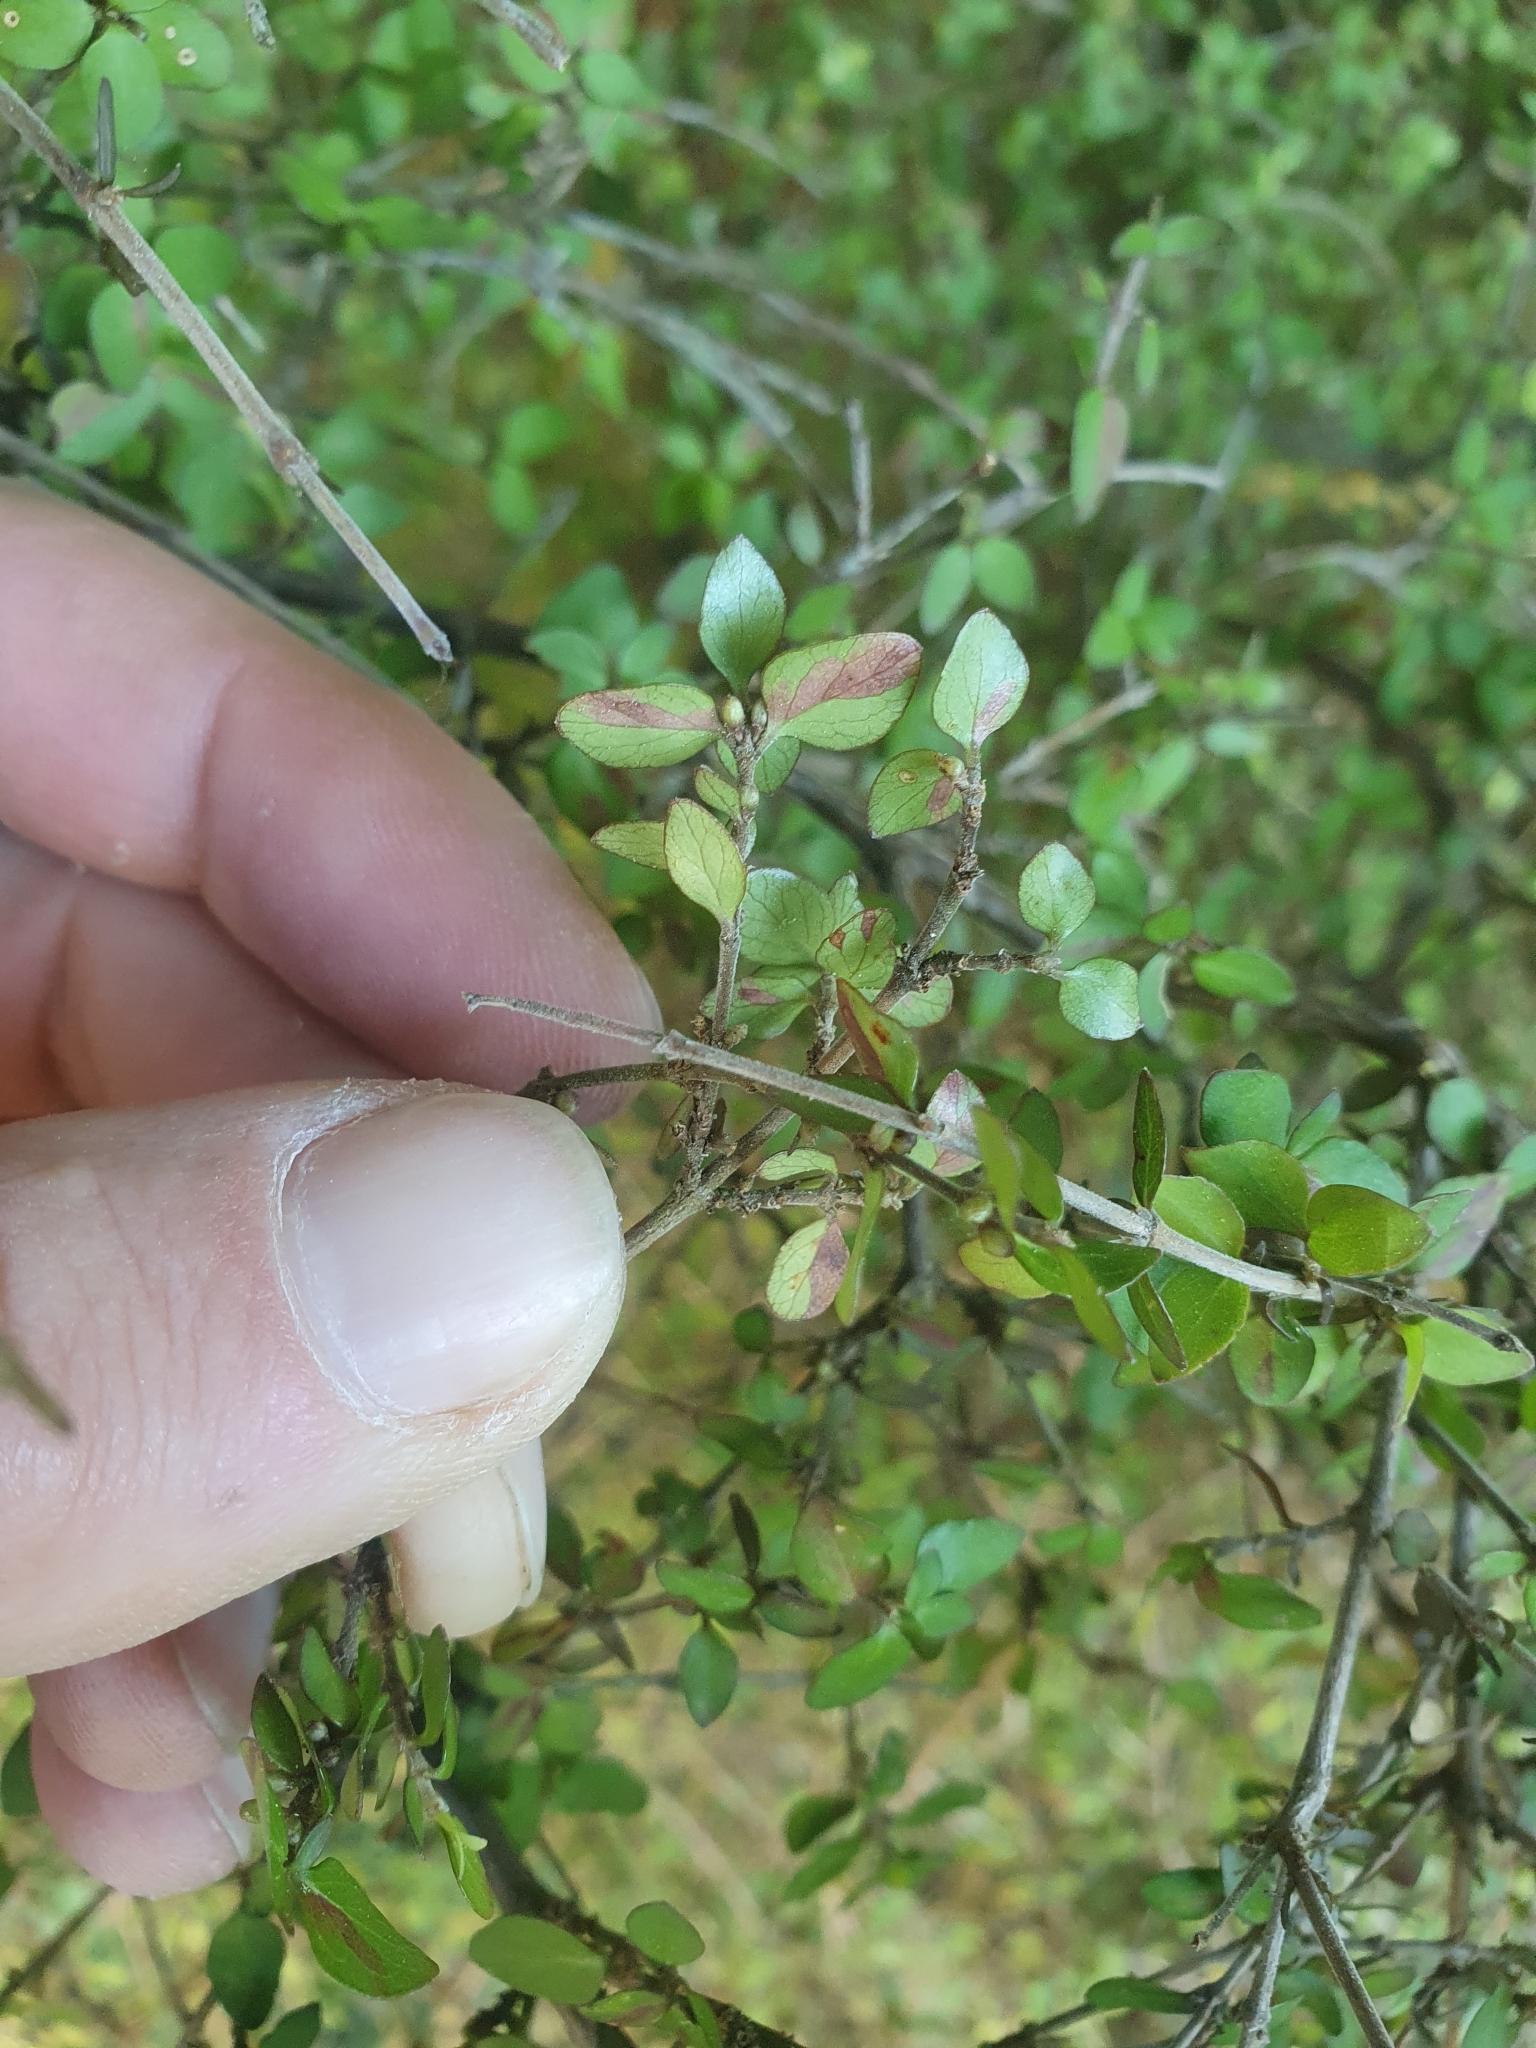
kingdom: Plantae
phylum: Tracheophyta
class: Magnoliopsida
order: Gentianales
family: Rubiaceae
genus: Coprosma
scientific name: Coprosma rhamnoides
